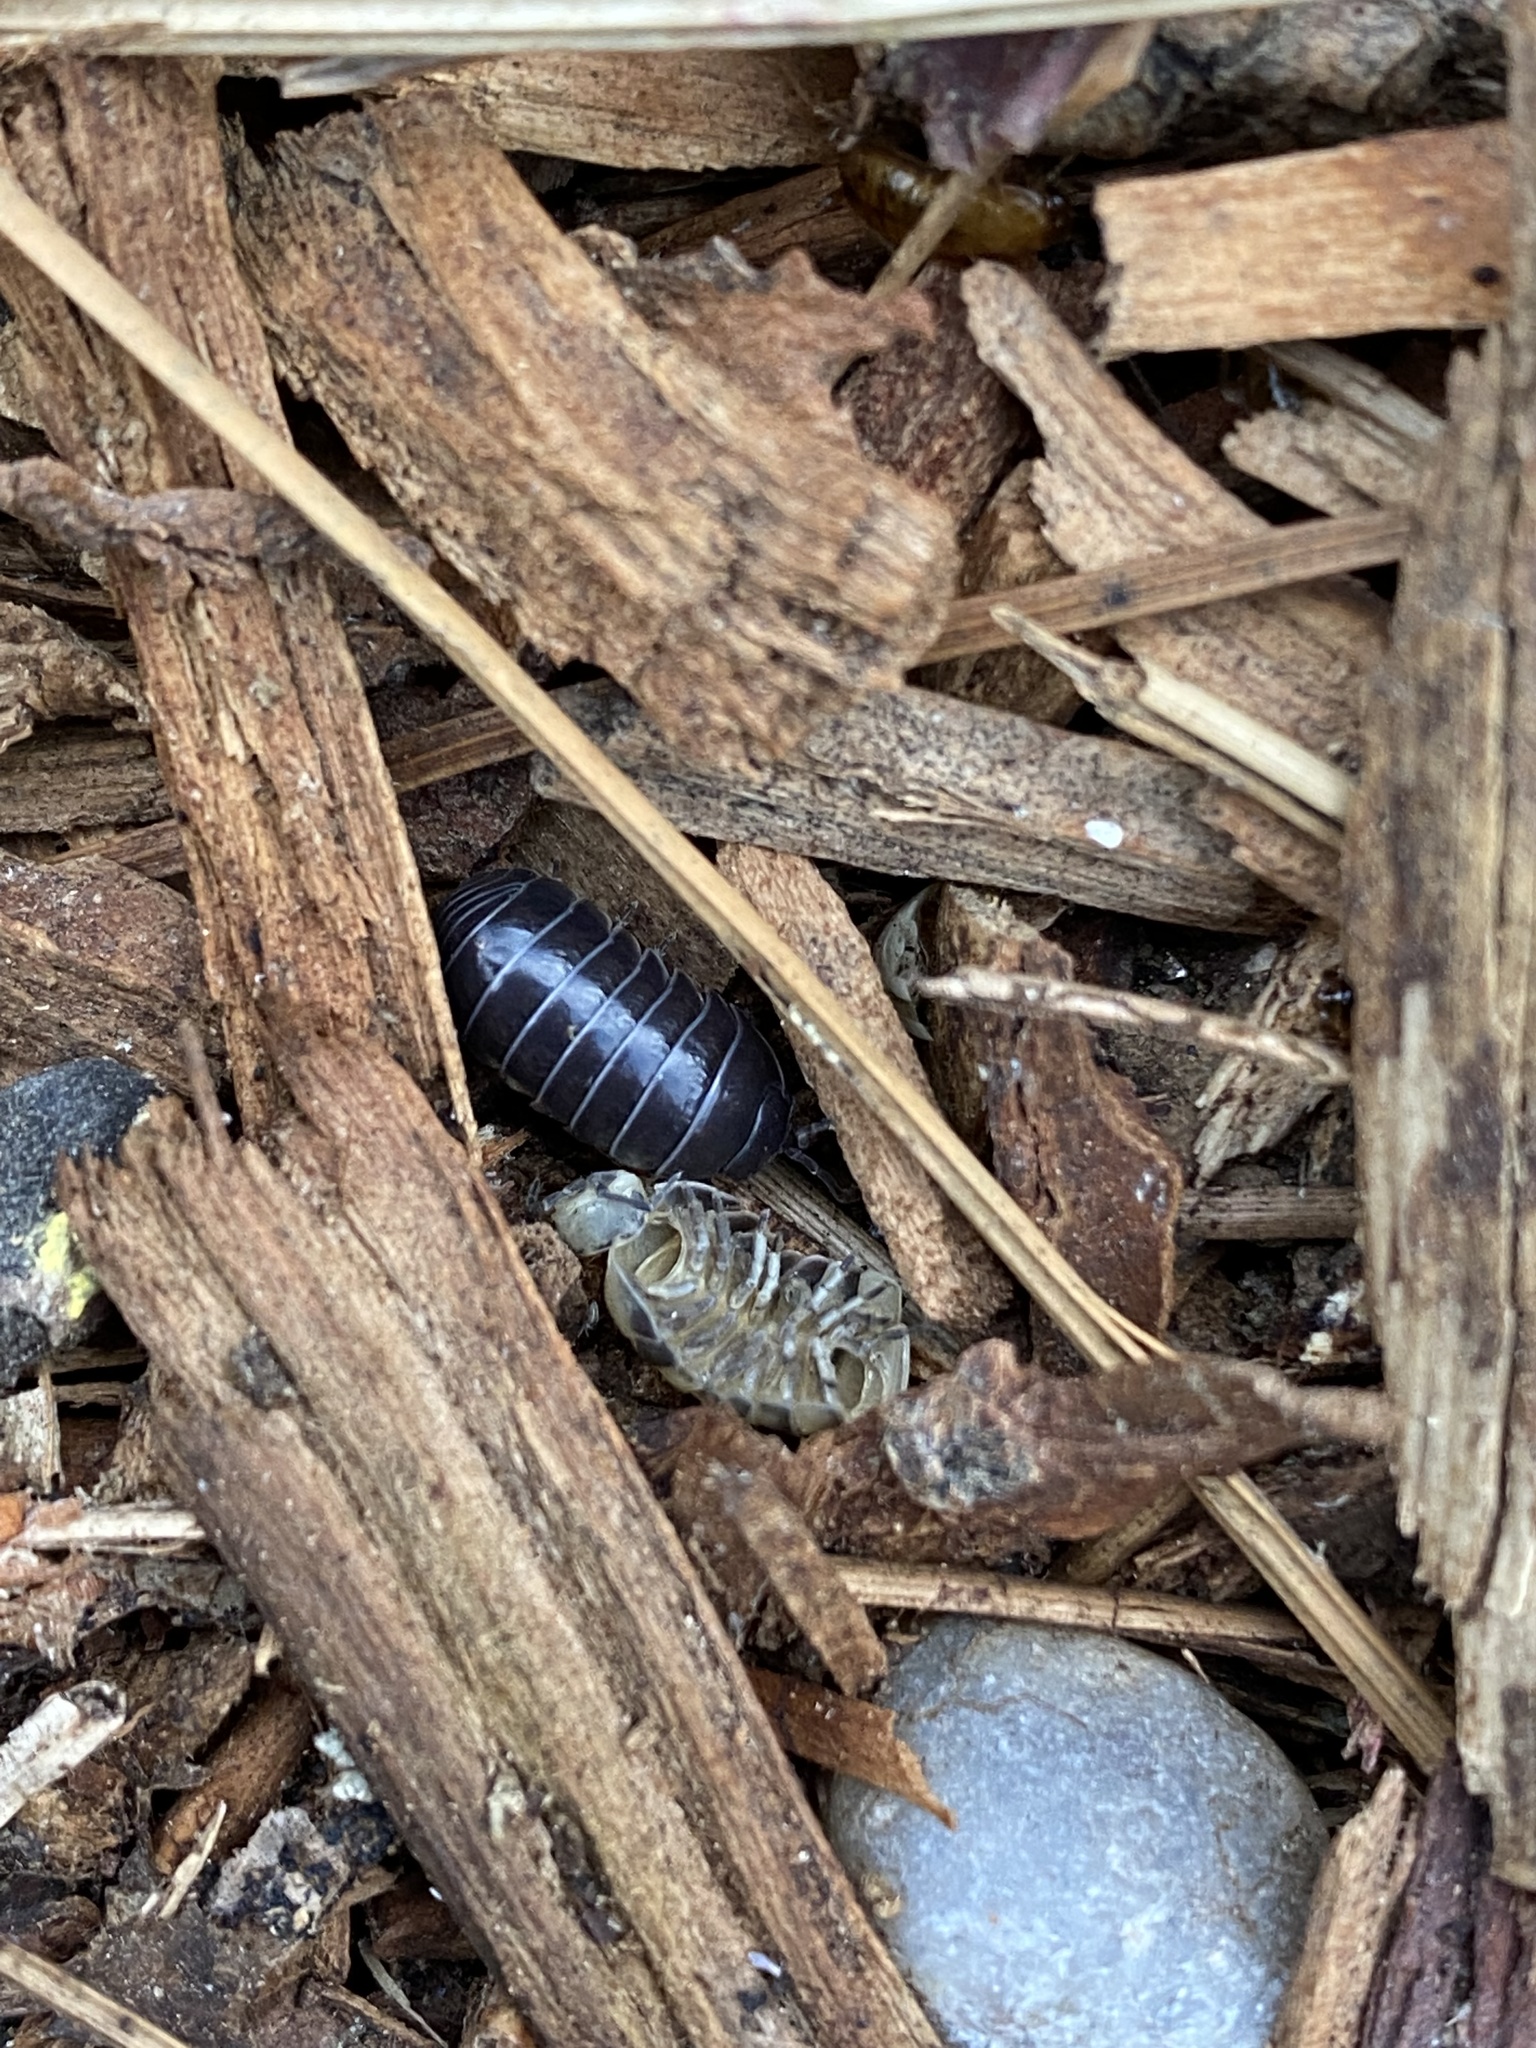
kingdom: Animalia
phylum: Arthropoda
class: Malacostraca
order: Isopoda
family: Armadillidiidae
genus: Armadillidium
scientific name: Armadillidium vulgare
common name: Common pill woodlouse
